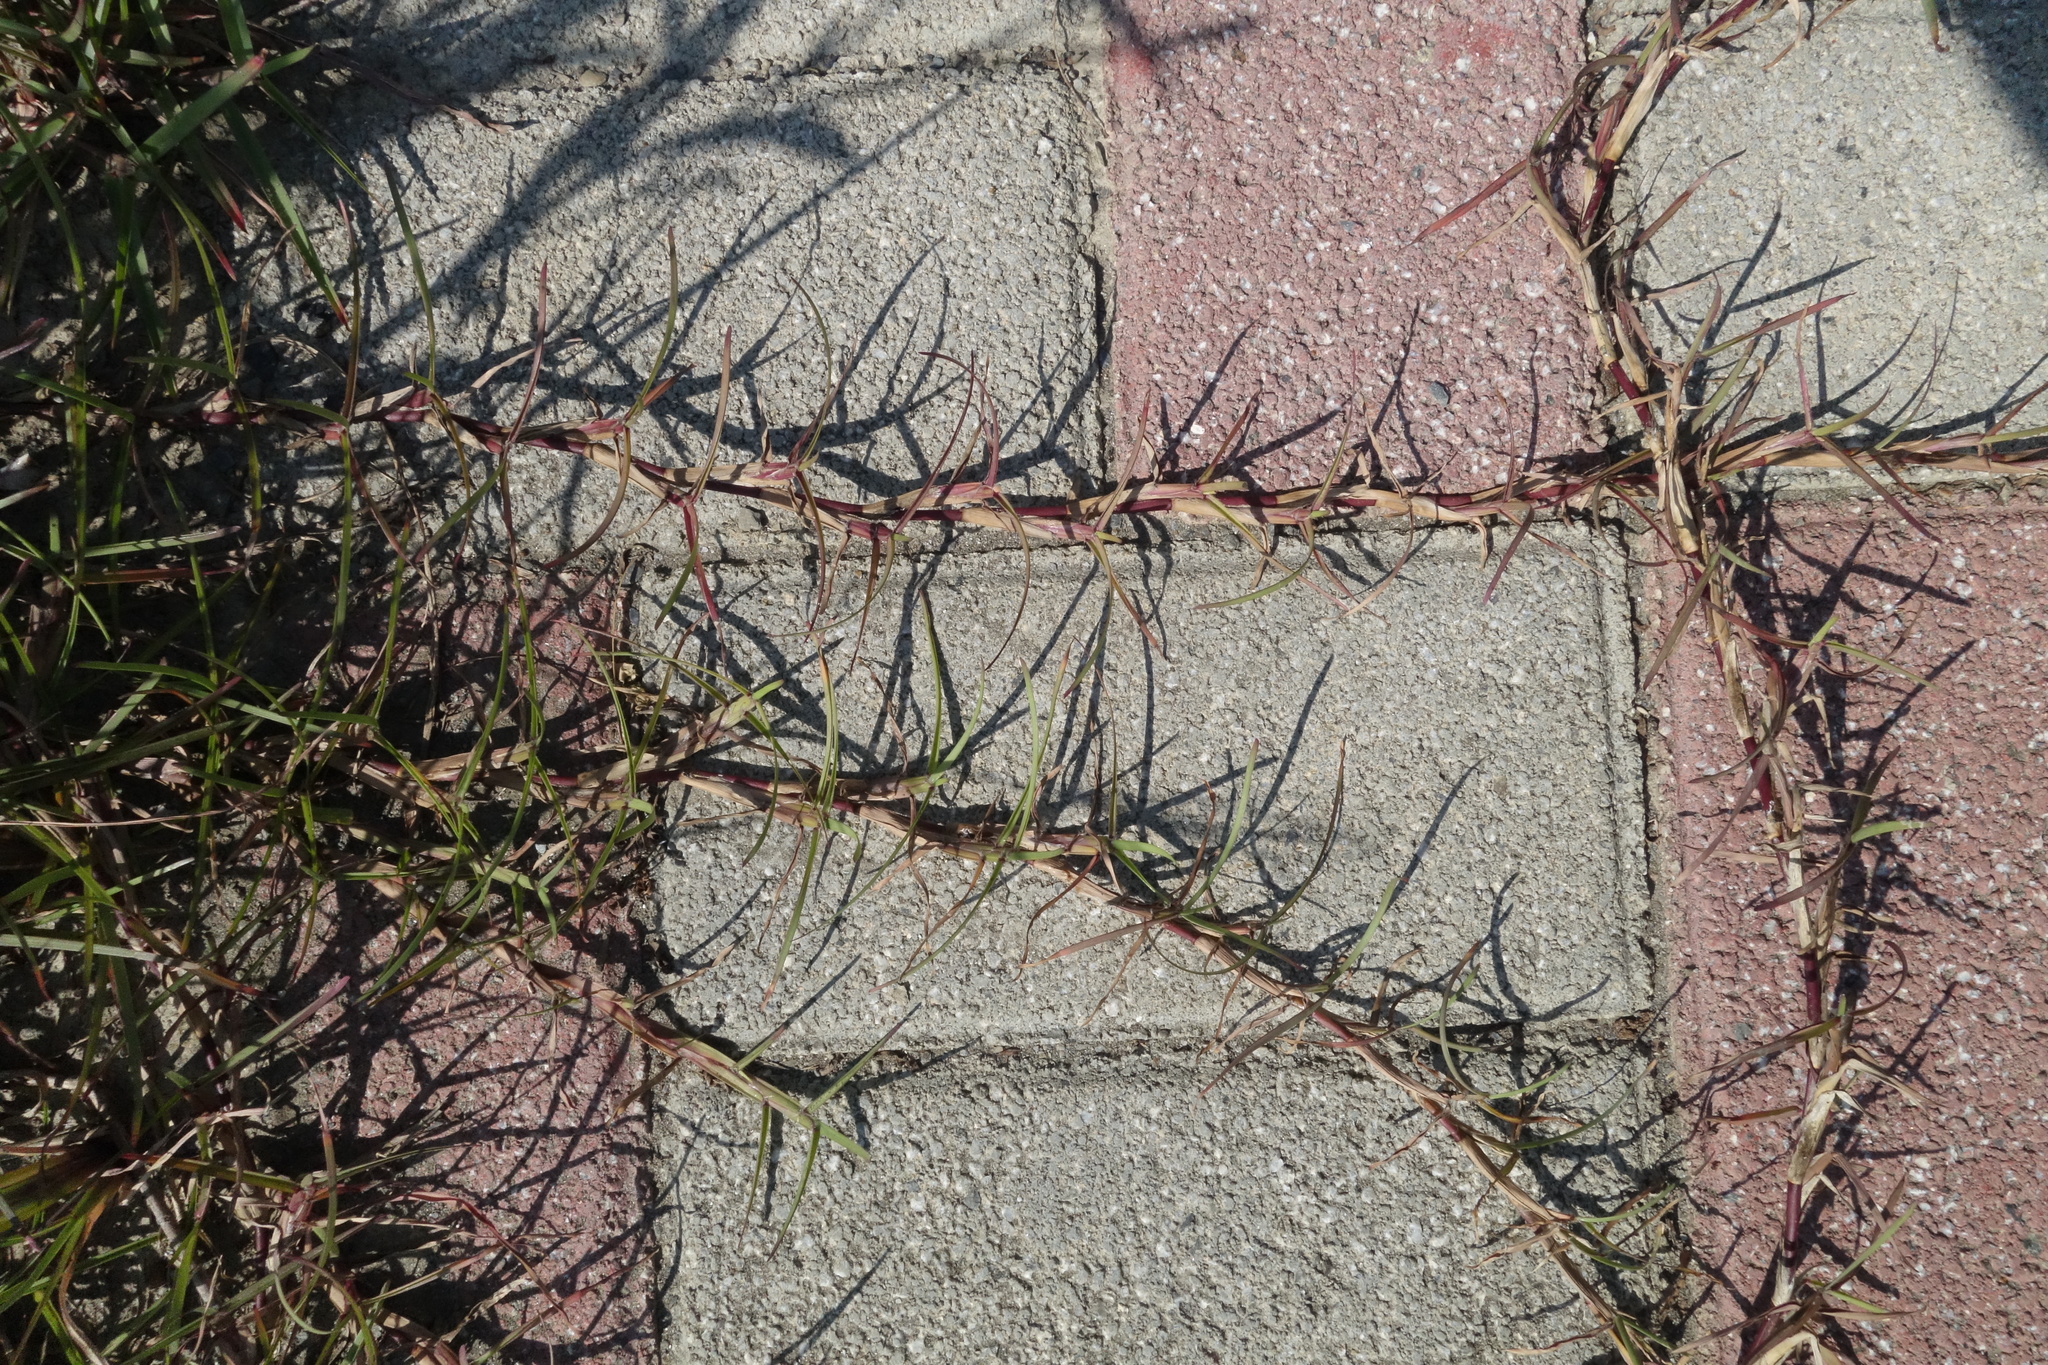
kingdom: Plantae
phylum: Tracheophyta
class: Liliopsida
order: Poales
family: Poaceae
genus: Cynodon
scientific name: Cynodon dactylon
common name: Bermuda grass
